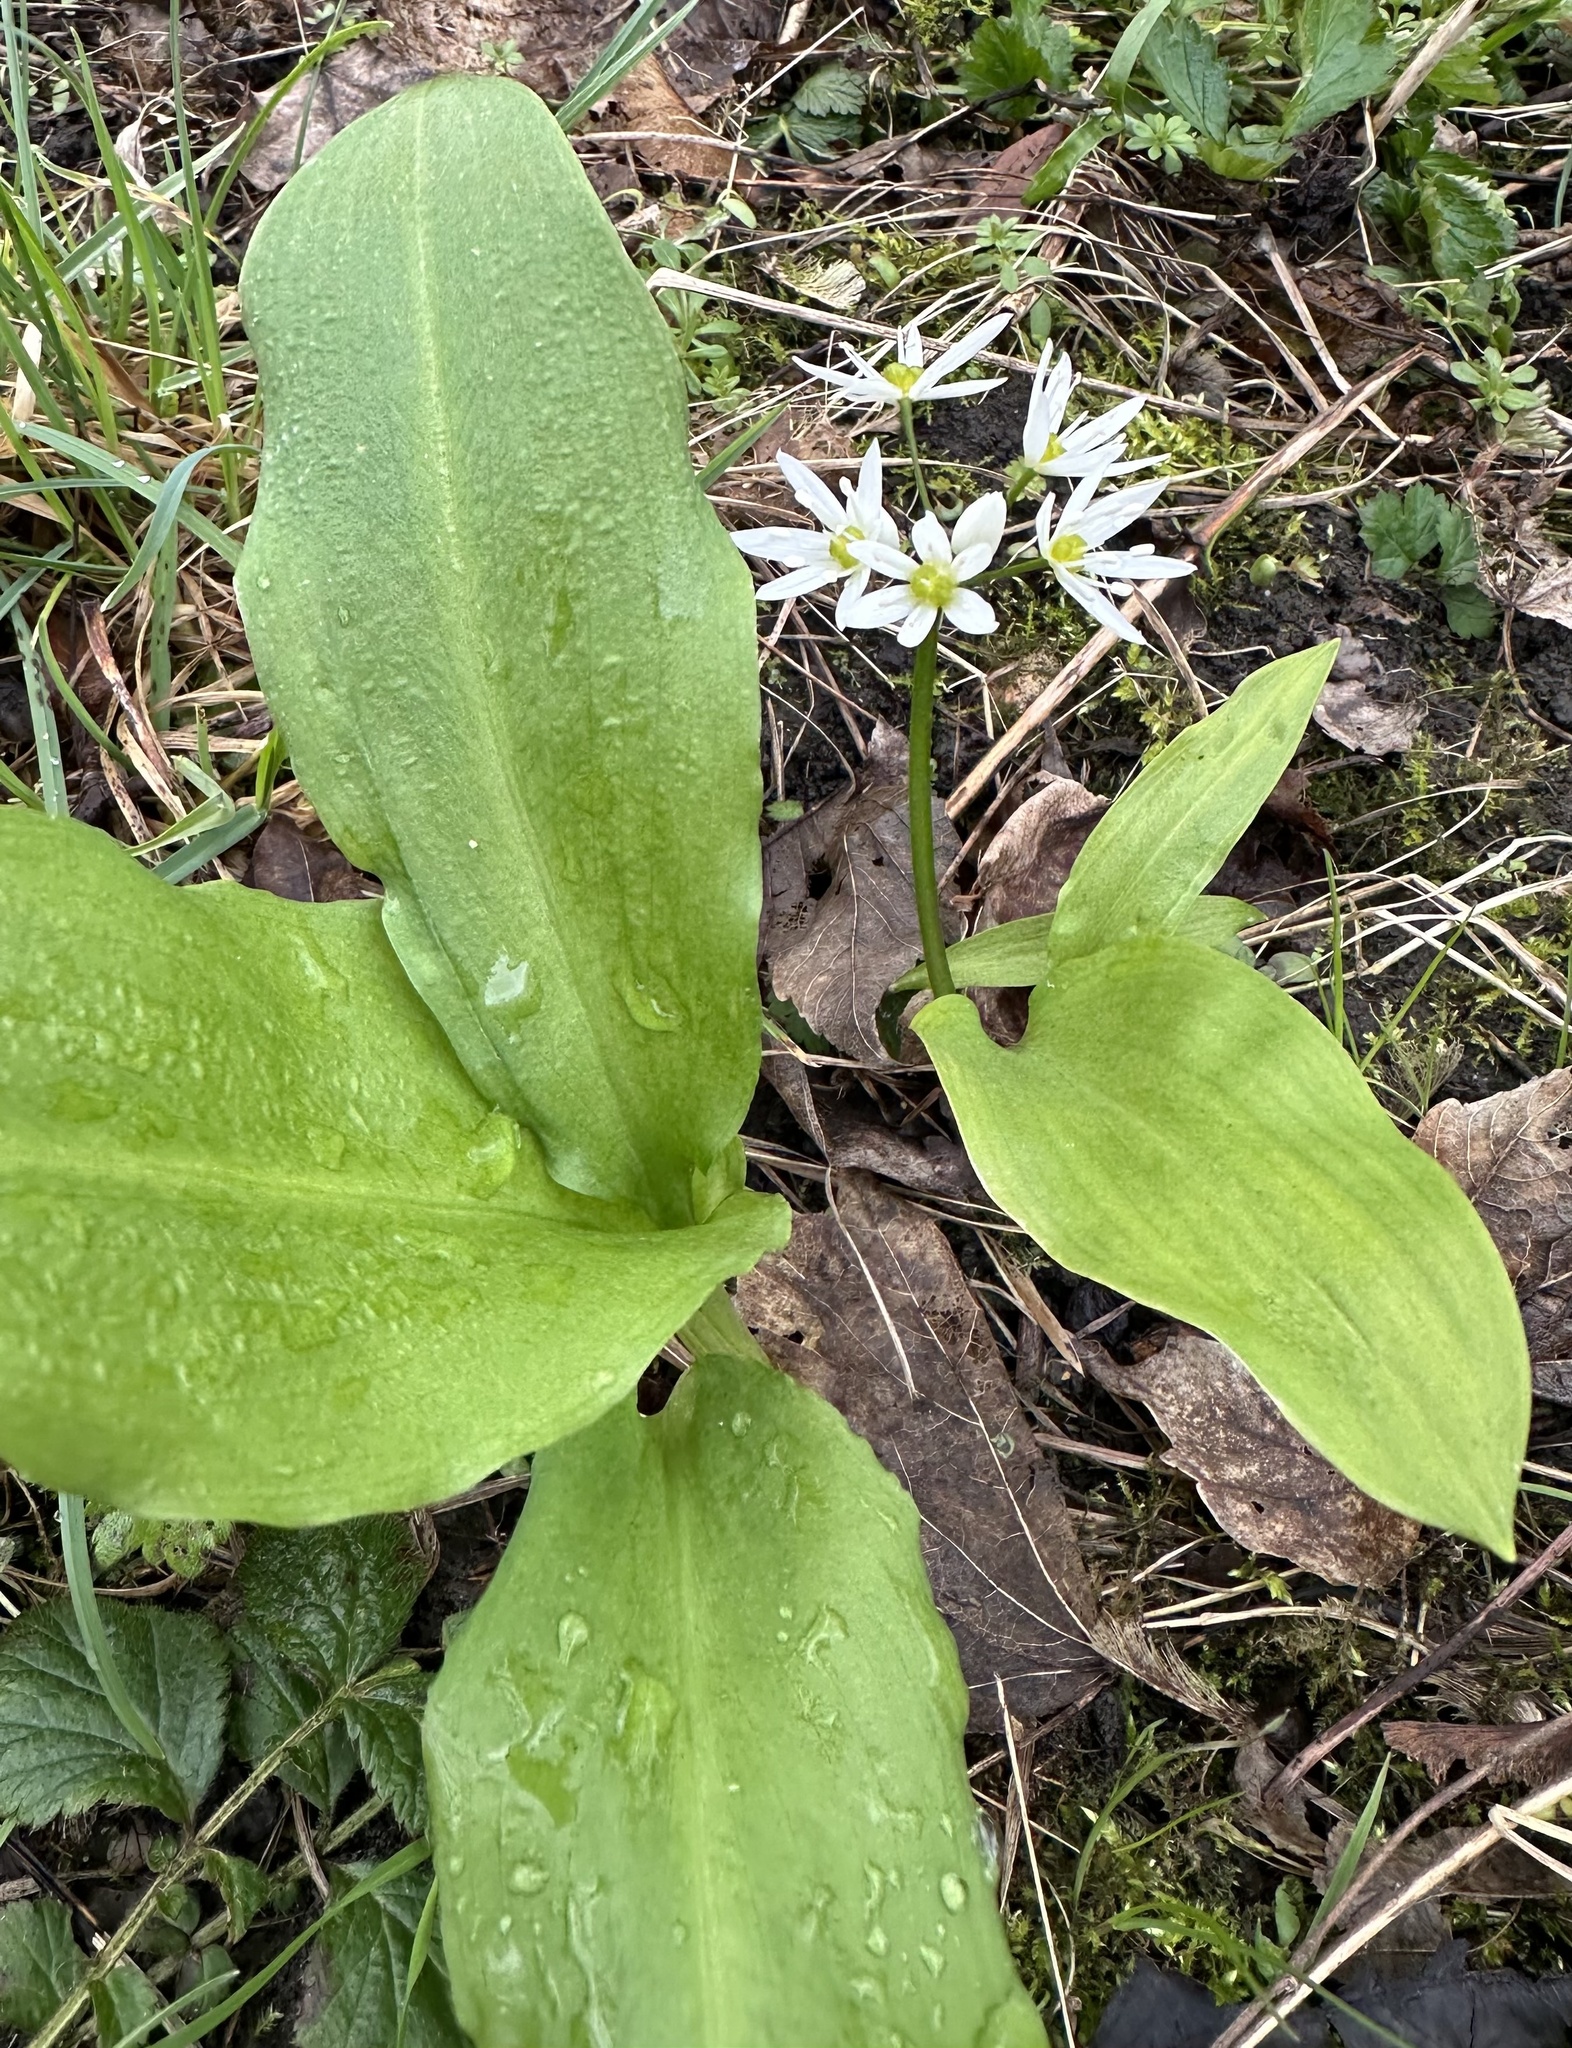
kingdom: Plantae
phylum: Tracheophyta
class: Liliopsida
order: Asparagales
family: Amaryllidaceae
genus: Allium
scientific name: Allium ursinum
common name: Ramsons
